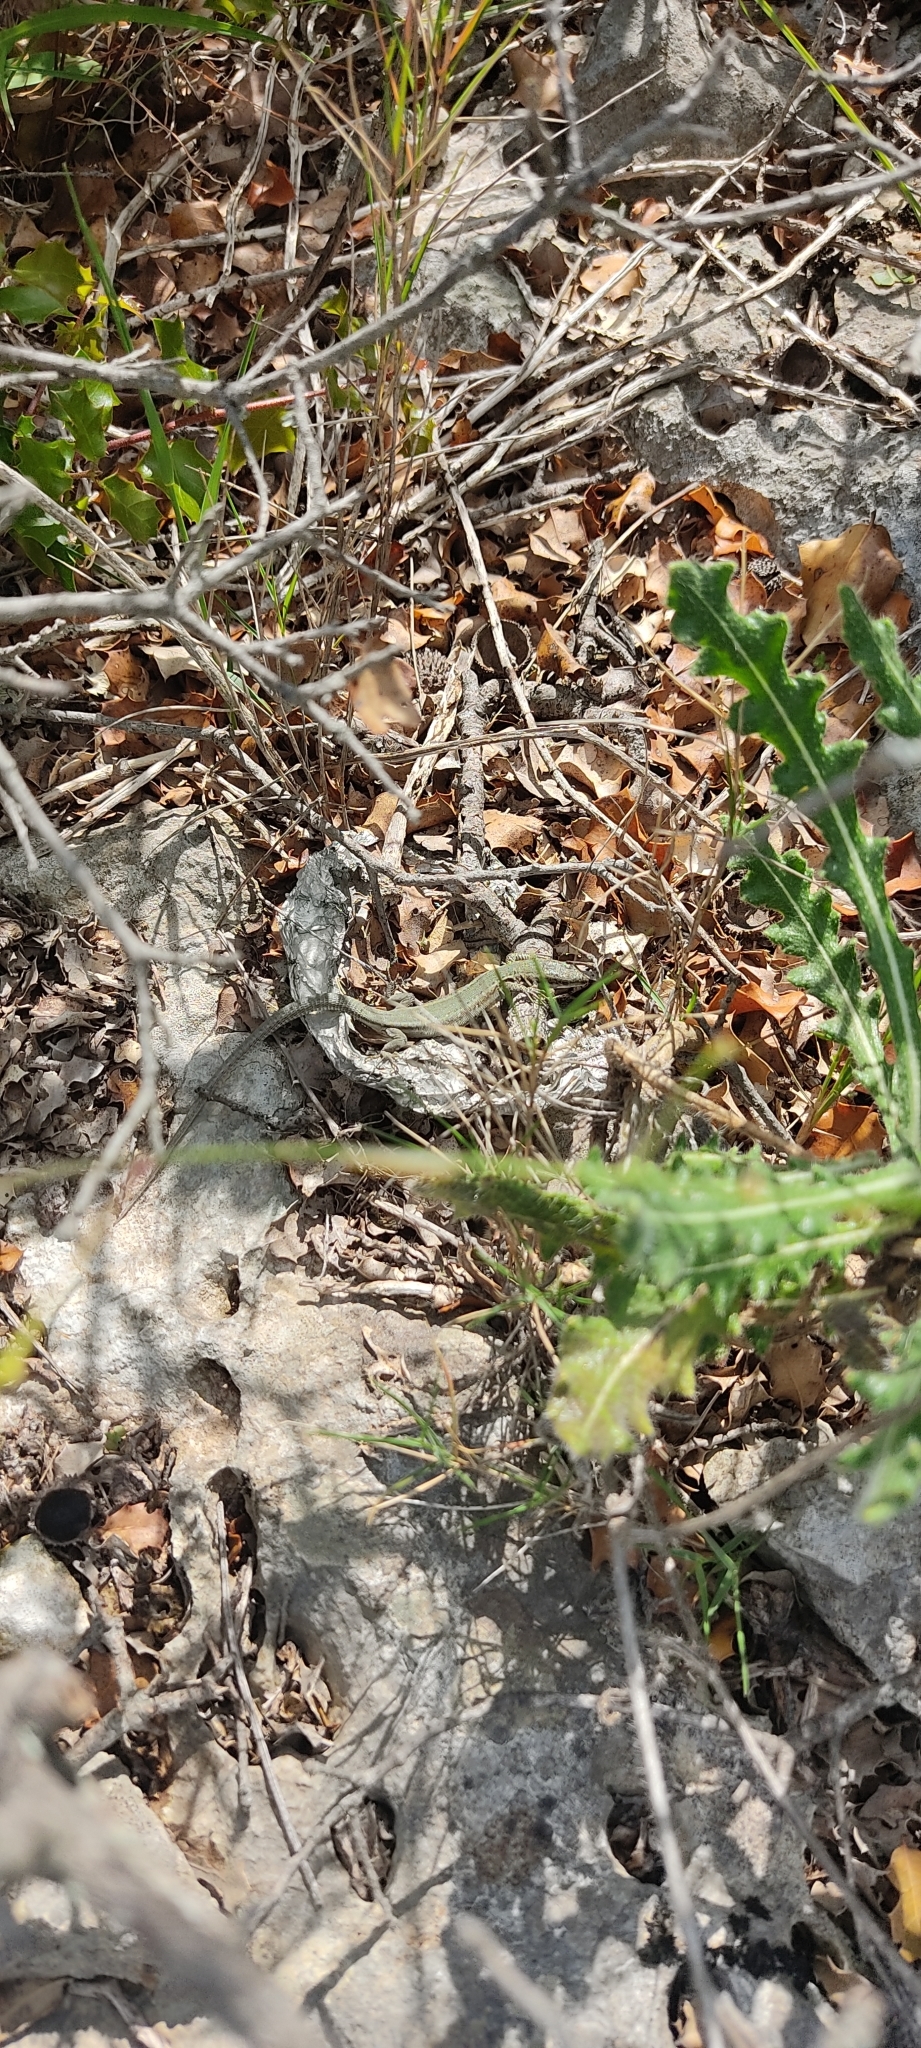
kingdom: Animalia
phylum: Chordata
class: Squamata
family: Lacertidae
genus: Podarcis
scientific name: Podarcis liolepis
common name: Catalonian wall lizard
